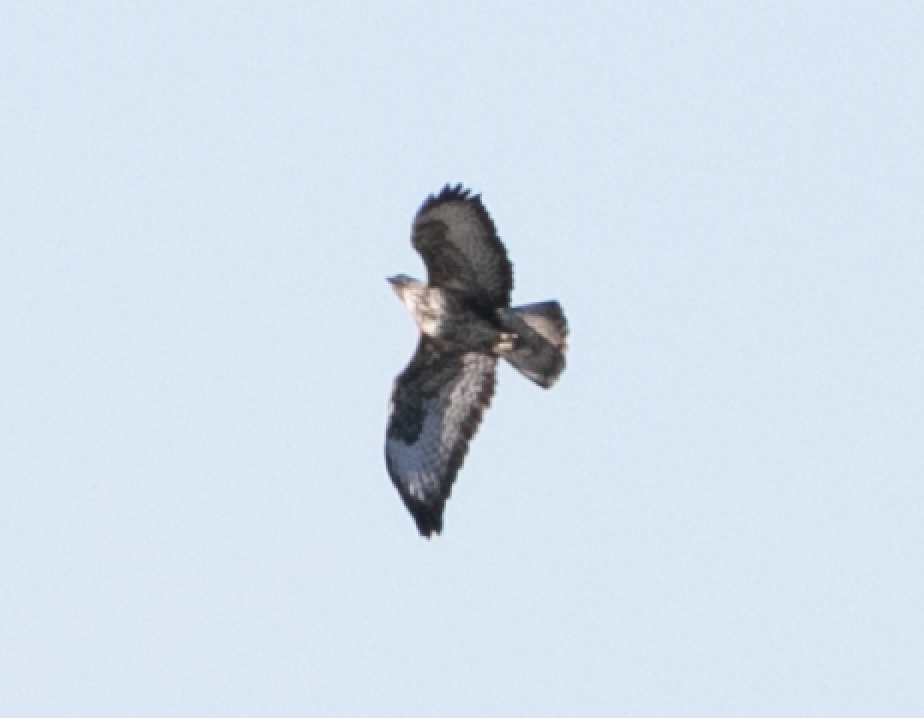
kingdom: Animalia
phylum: Chordata
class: Aves
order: Accipitriformes
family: Accipitridae
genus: Buteo
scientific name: Buteo buteo
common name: Common buzzard
